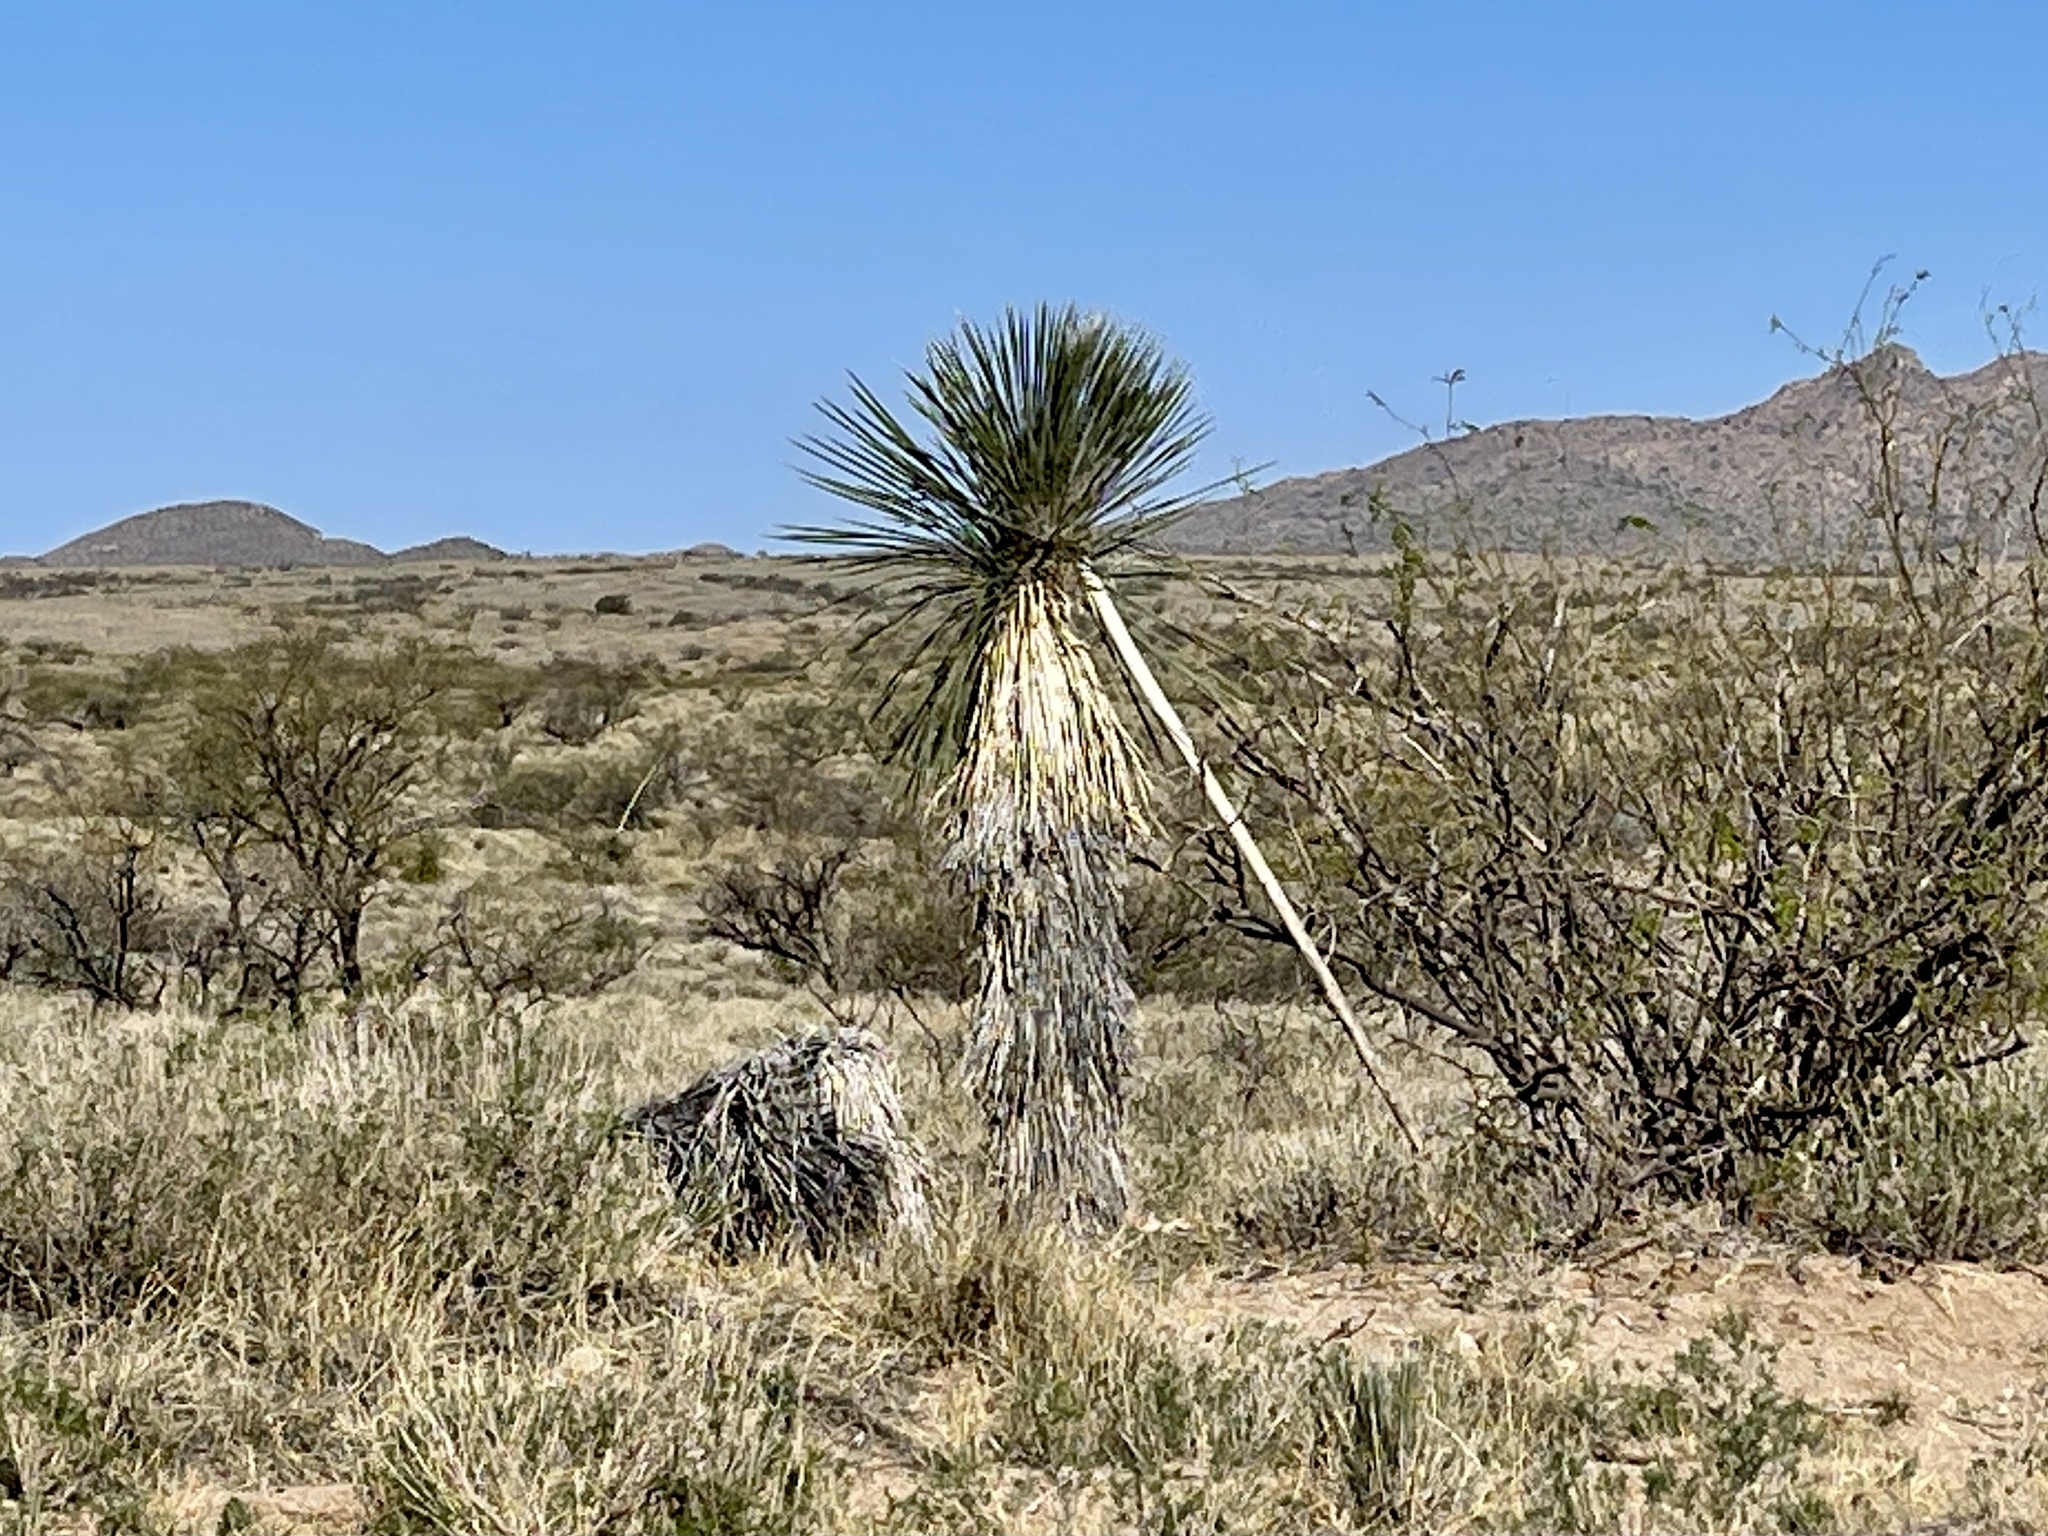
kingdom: Plantae
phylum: Tracheophyta
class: Liliopsida
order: Asparagales
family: Asparagaceae
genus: Yucca
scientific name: Yucca elata
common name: Palmella
